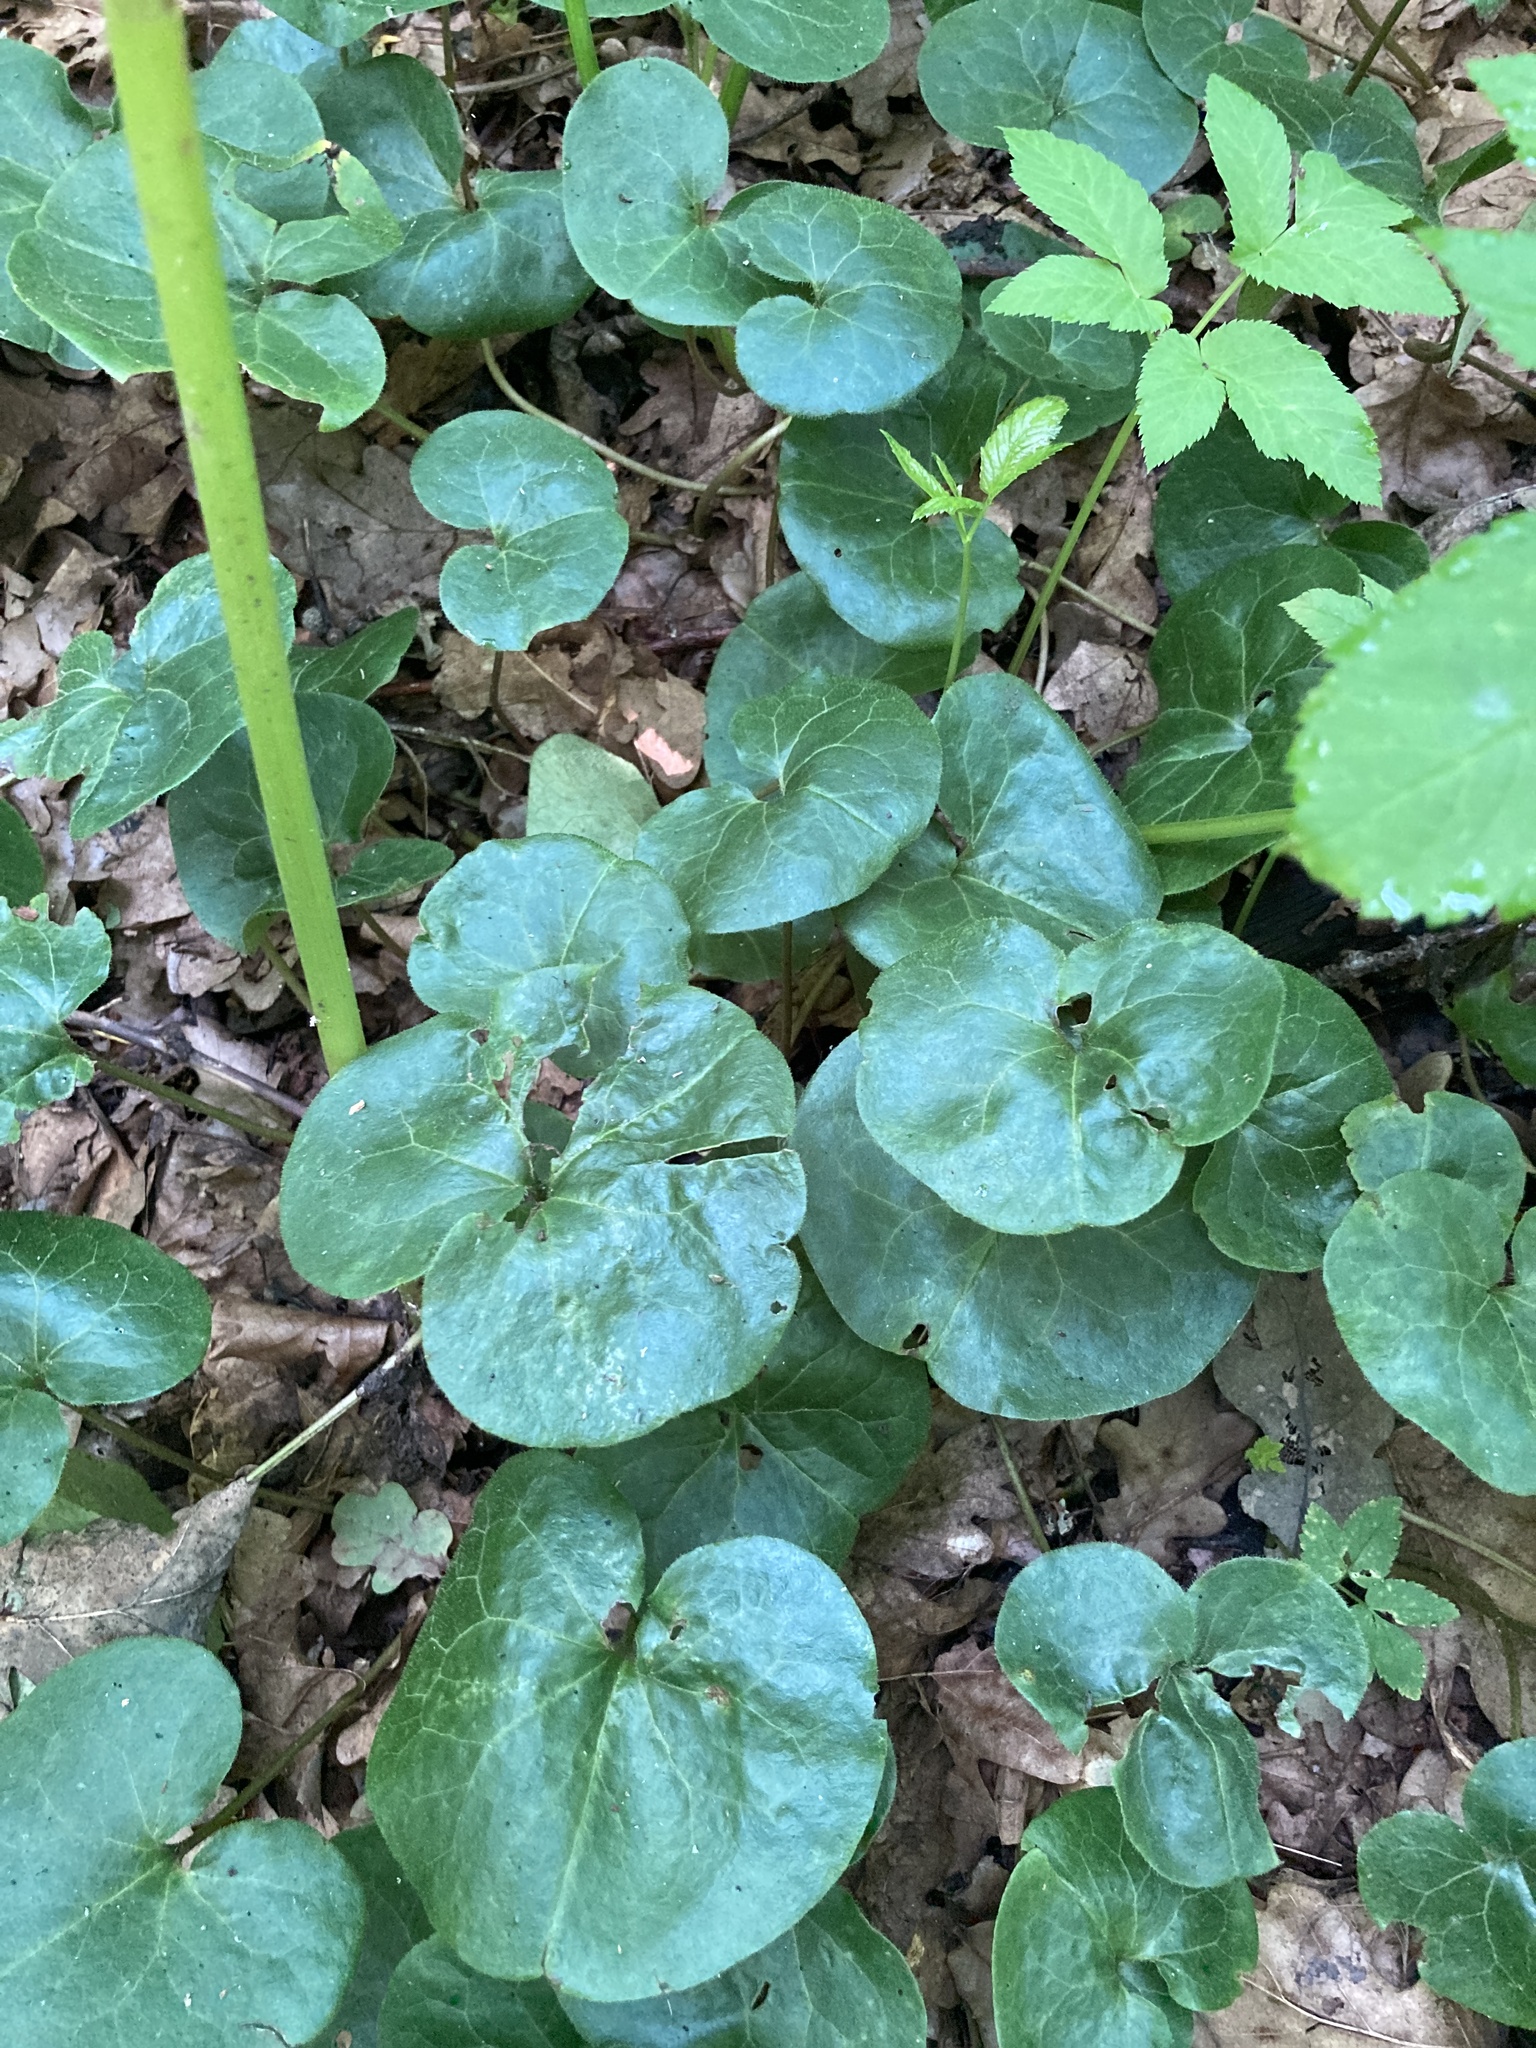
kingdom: Plantae
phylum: Tracheophyta
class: Magnoliopsida
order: Piperales
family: Aristolochiaceae
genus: Asarum
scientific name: Asarum europaeum
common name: Asarabacca
